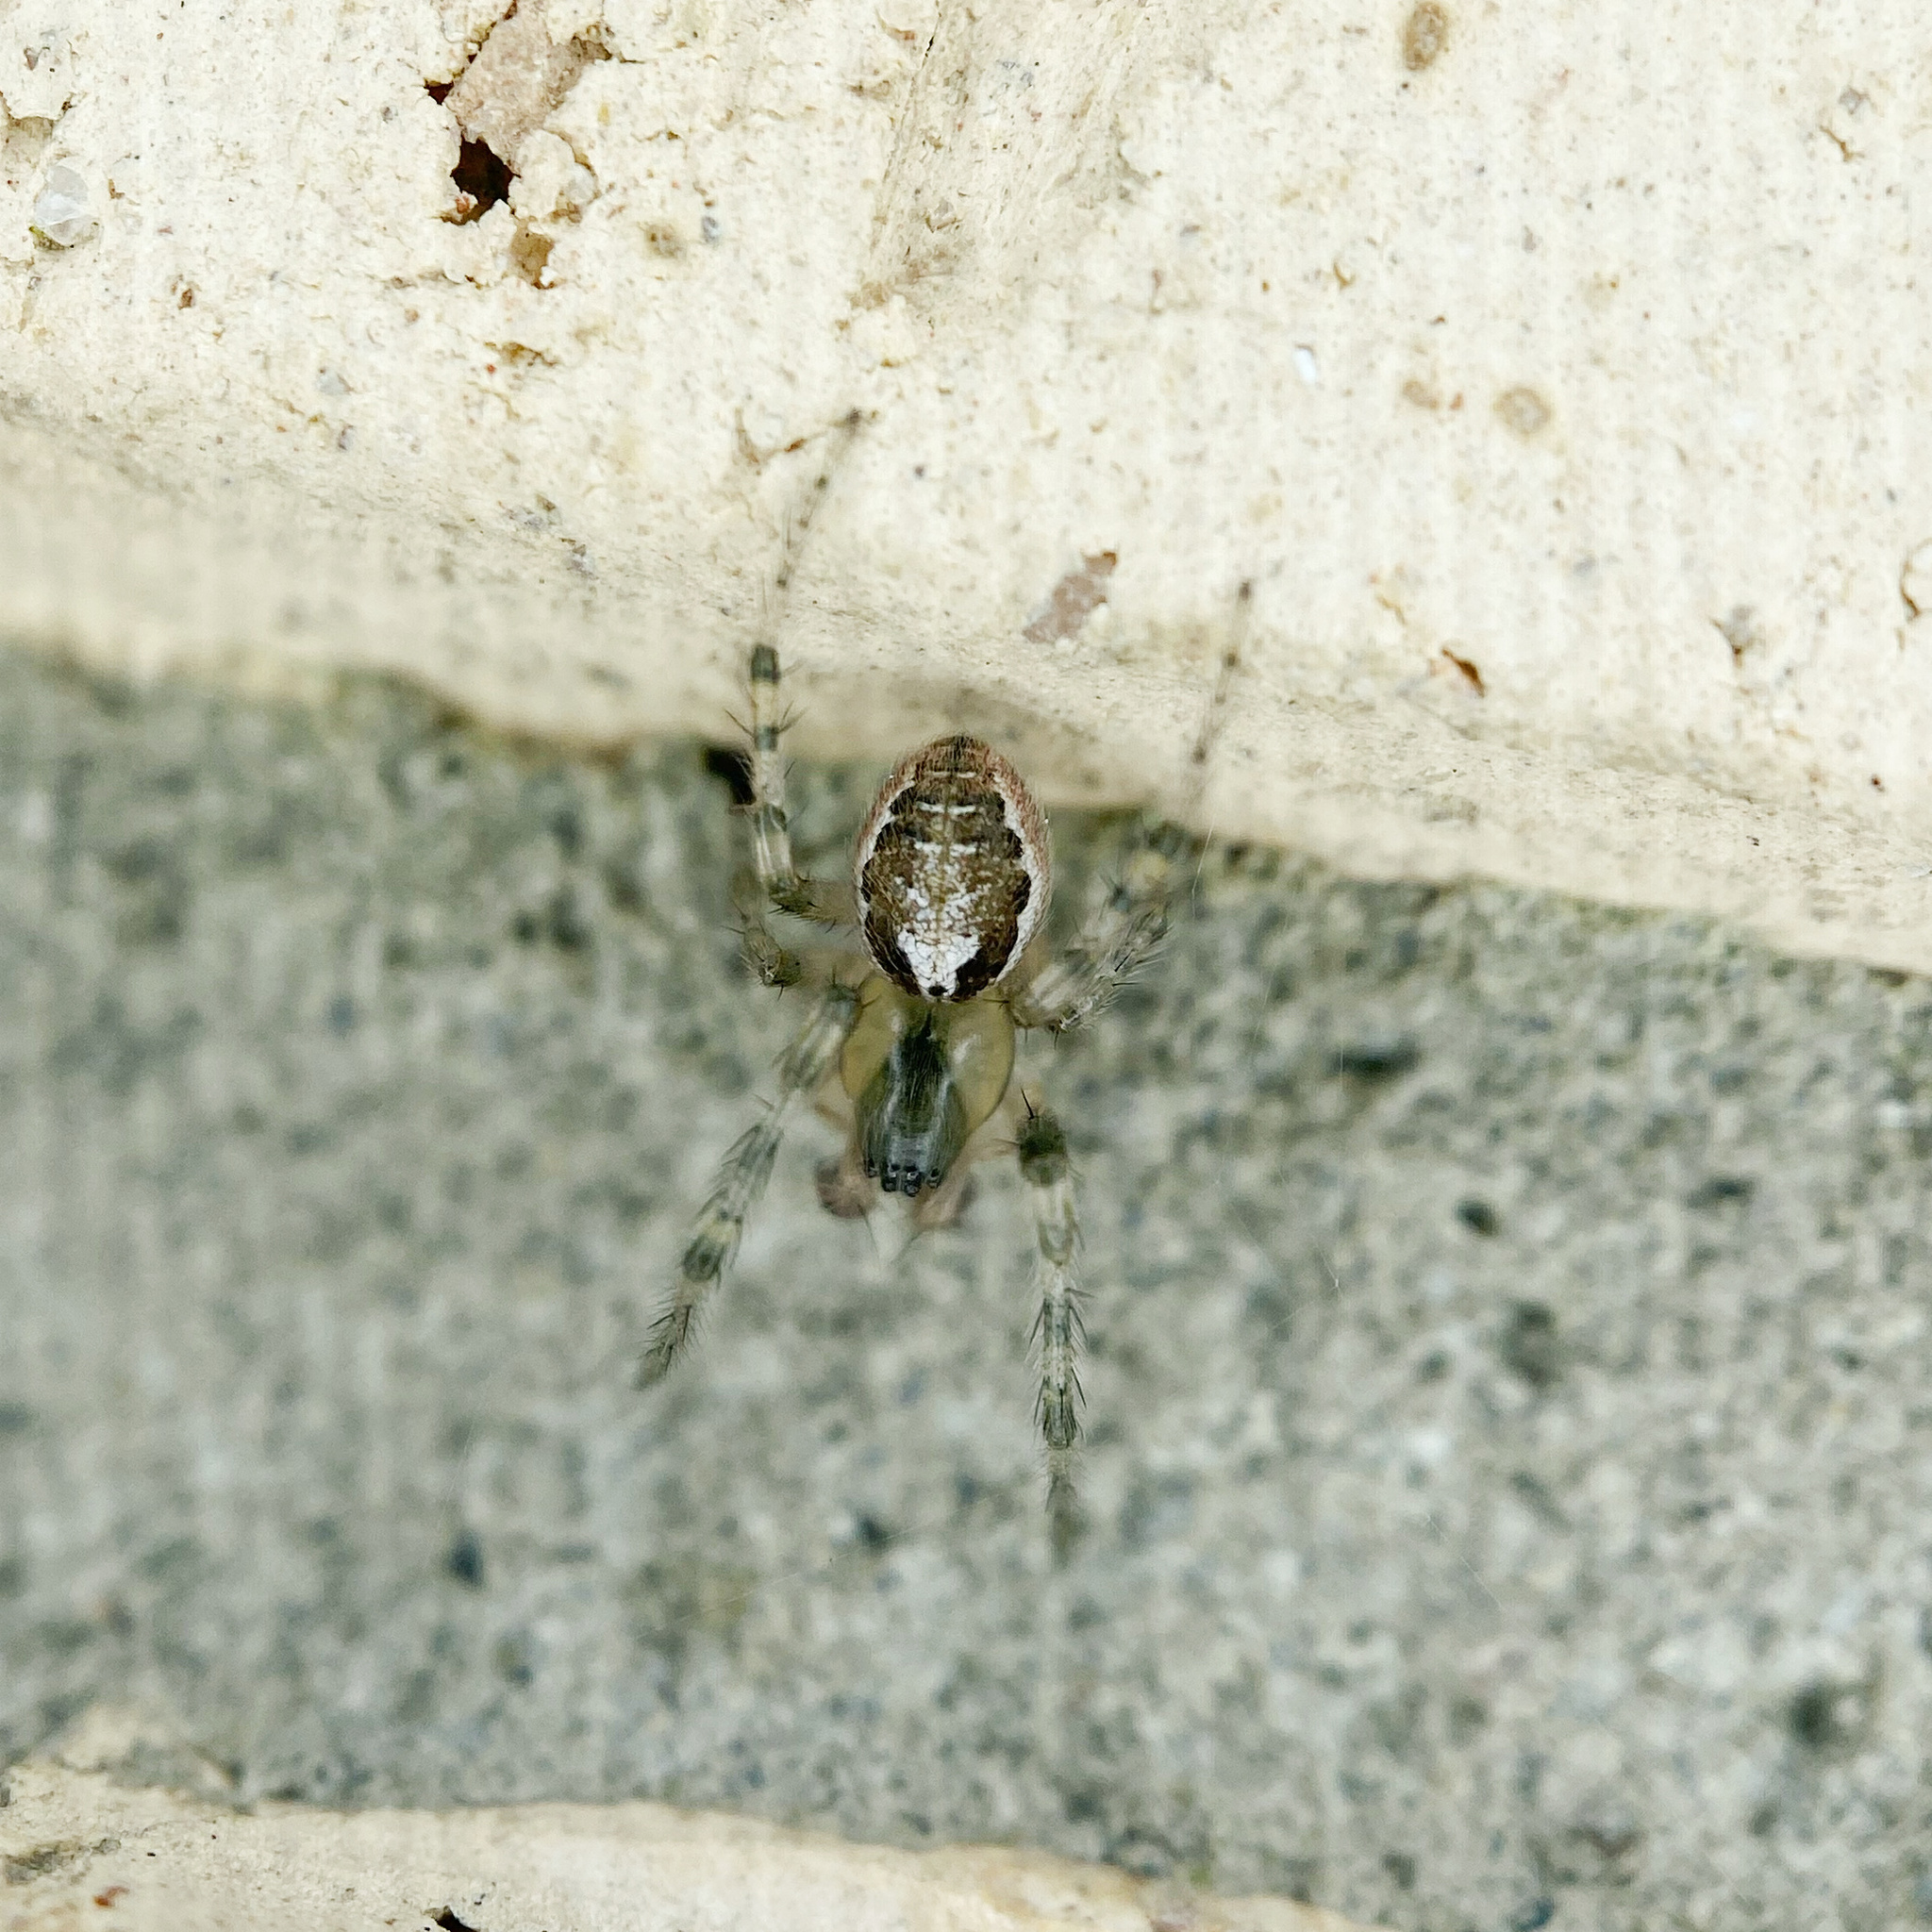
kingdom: Animalia
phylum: Arthropoda
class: Arachnida
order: Araneae
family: Araneidae
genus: Zygiella
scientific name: Zygiella x-notata
